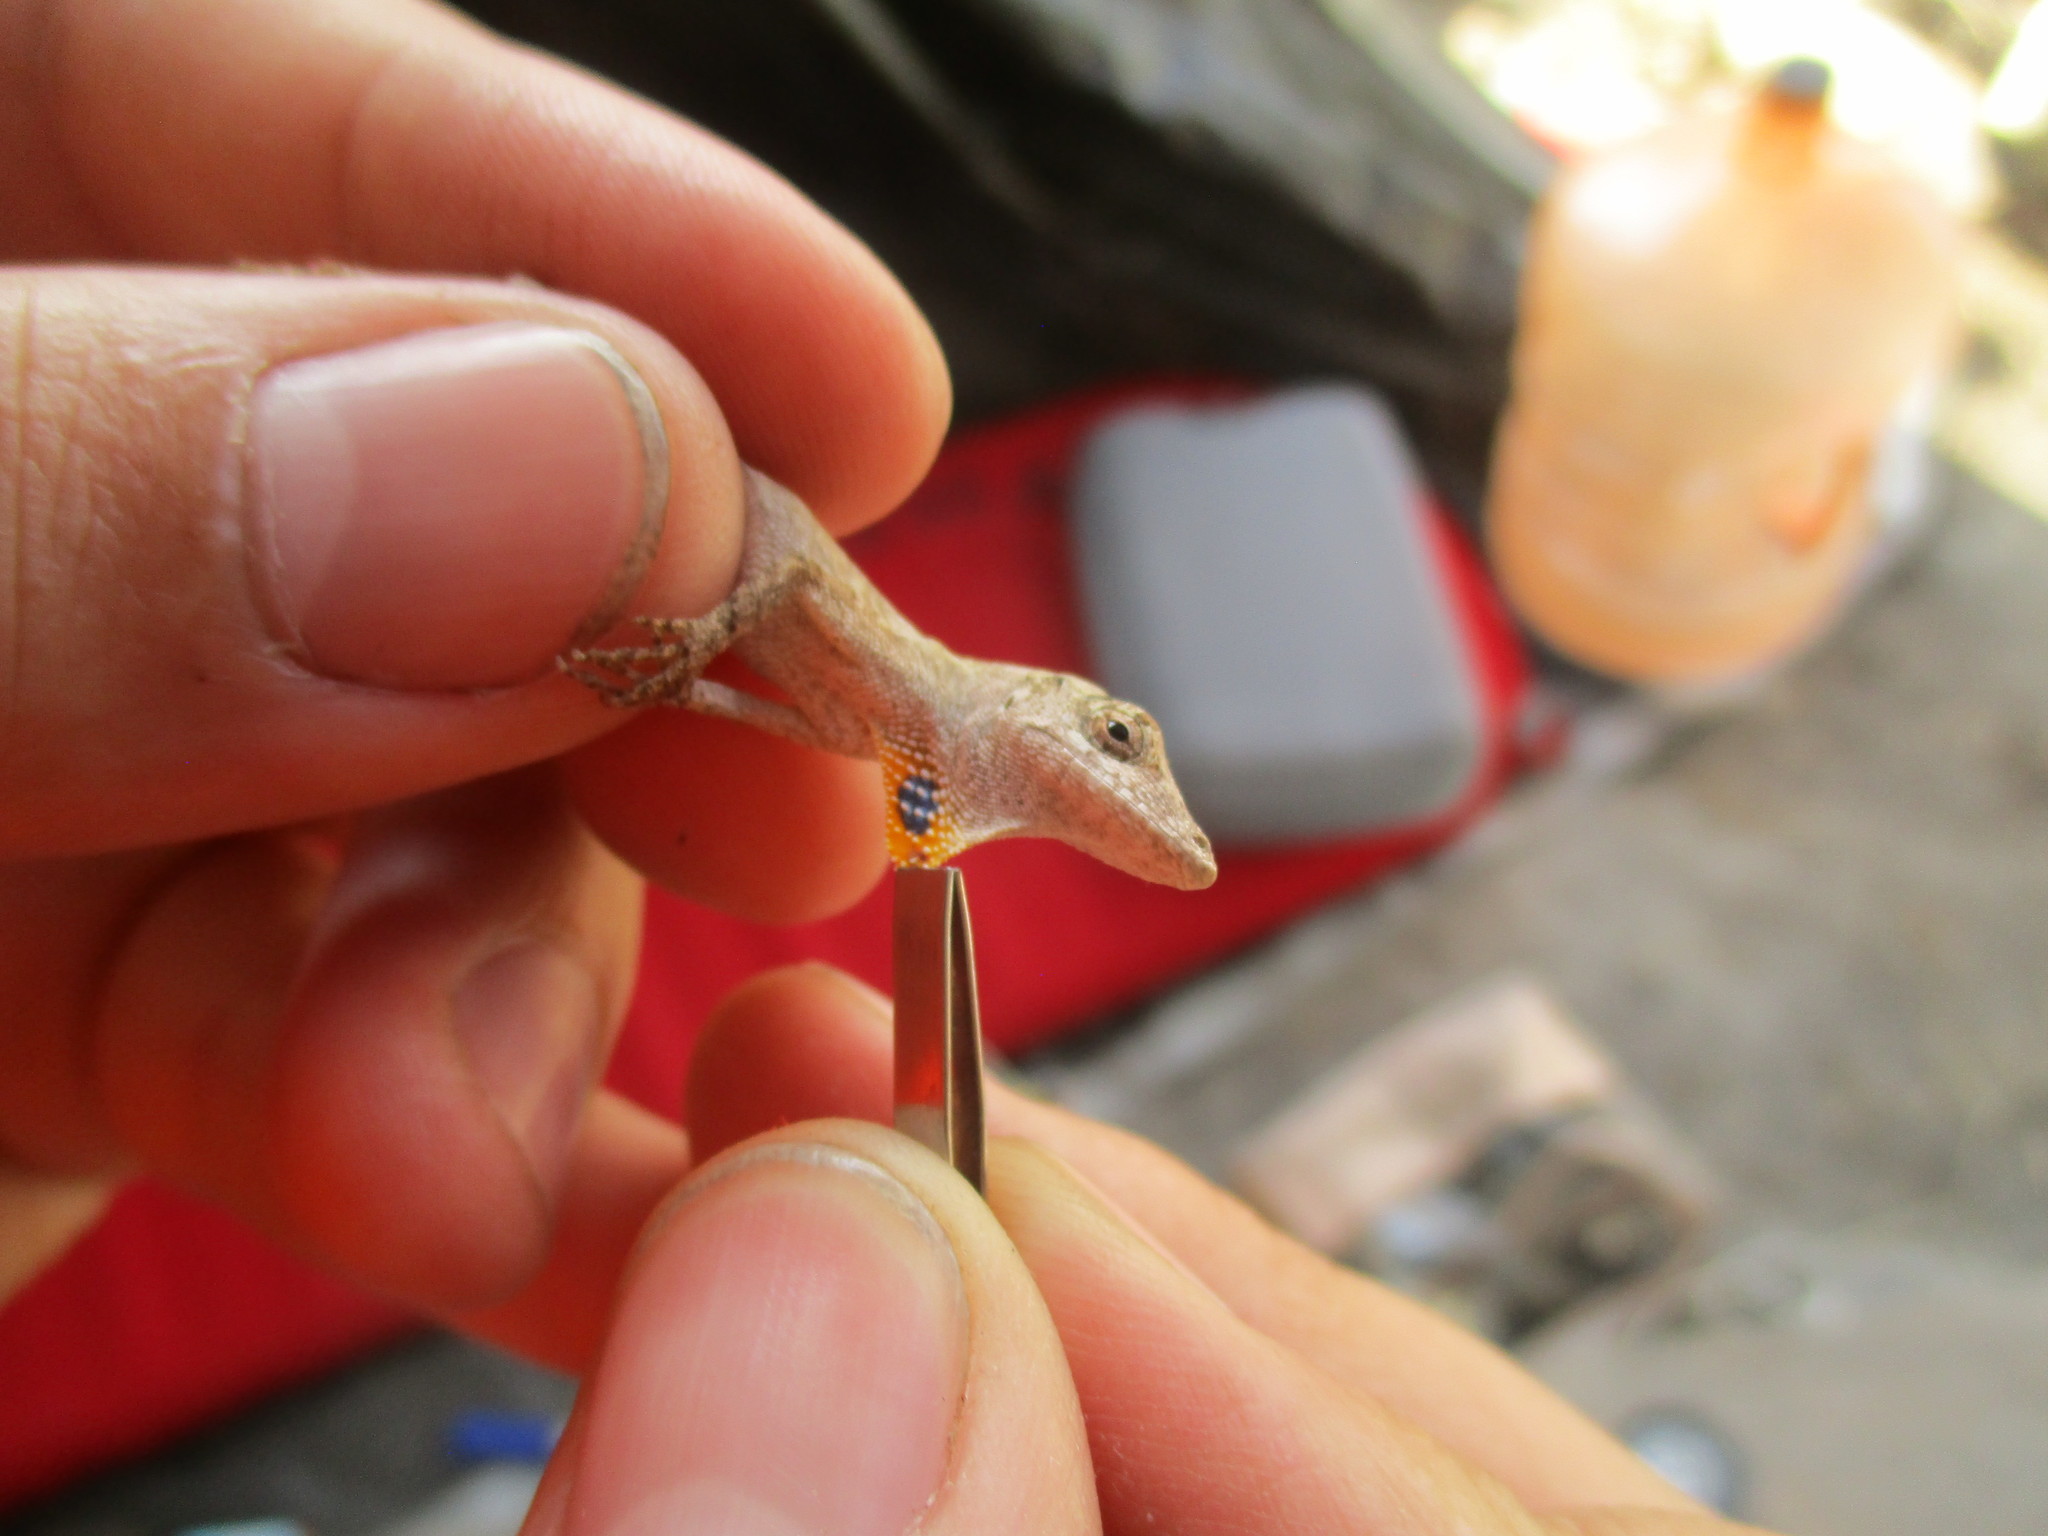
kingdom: Animalia
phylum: Chordata
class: Squamata
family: Dactyloidae
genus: Anolis
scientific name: Anolis ustus
